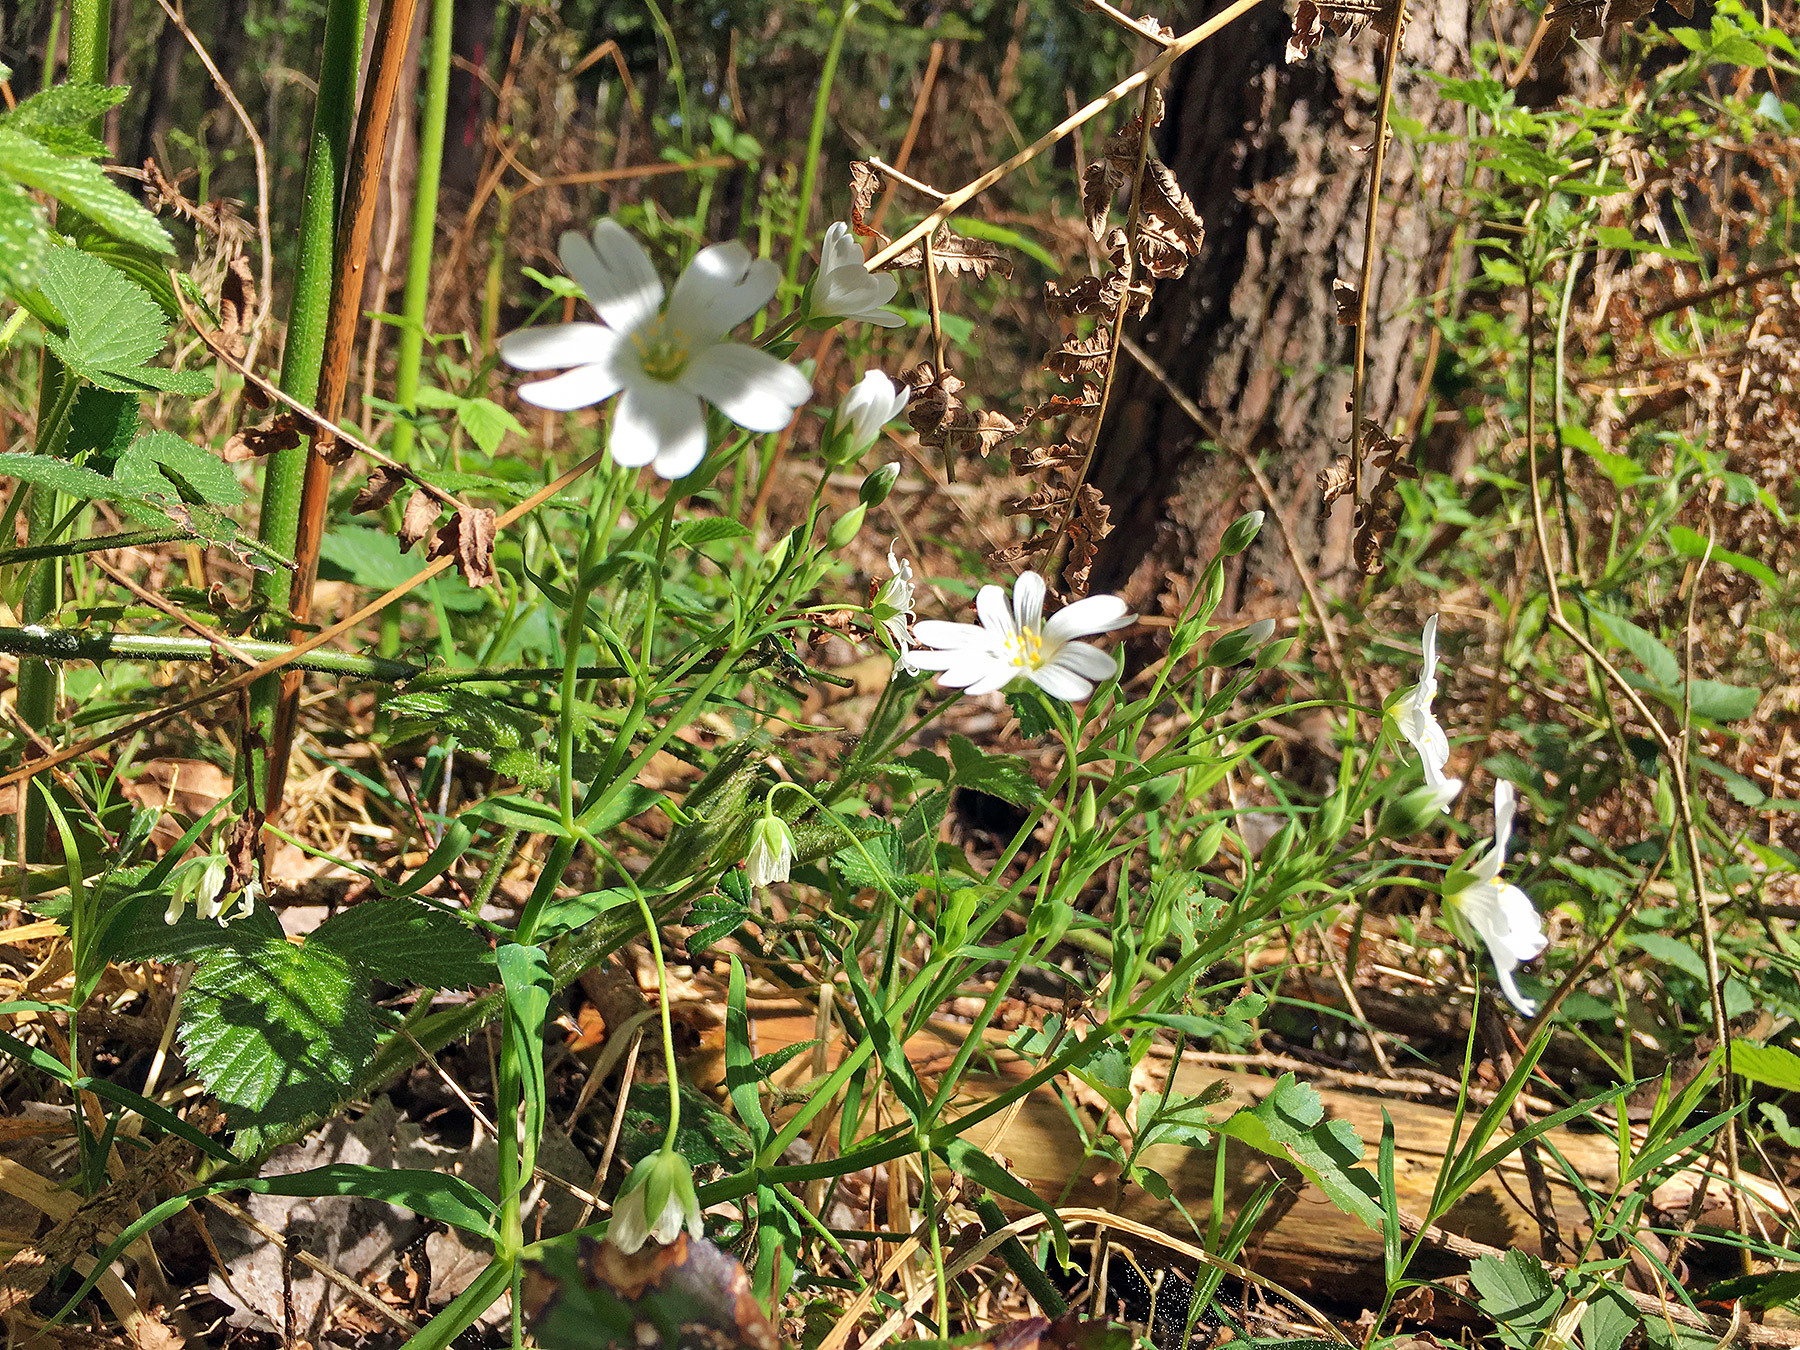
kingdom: Plantae
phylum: Tracheophyta
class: Magnoliopsida
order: Caryophyllales
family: Caryophyllaceae
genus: Rabelera
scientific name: Rabelera holostea
